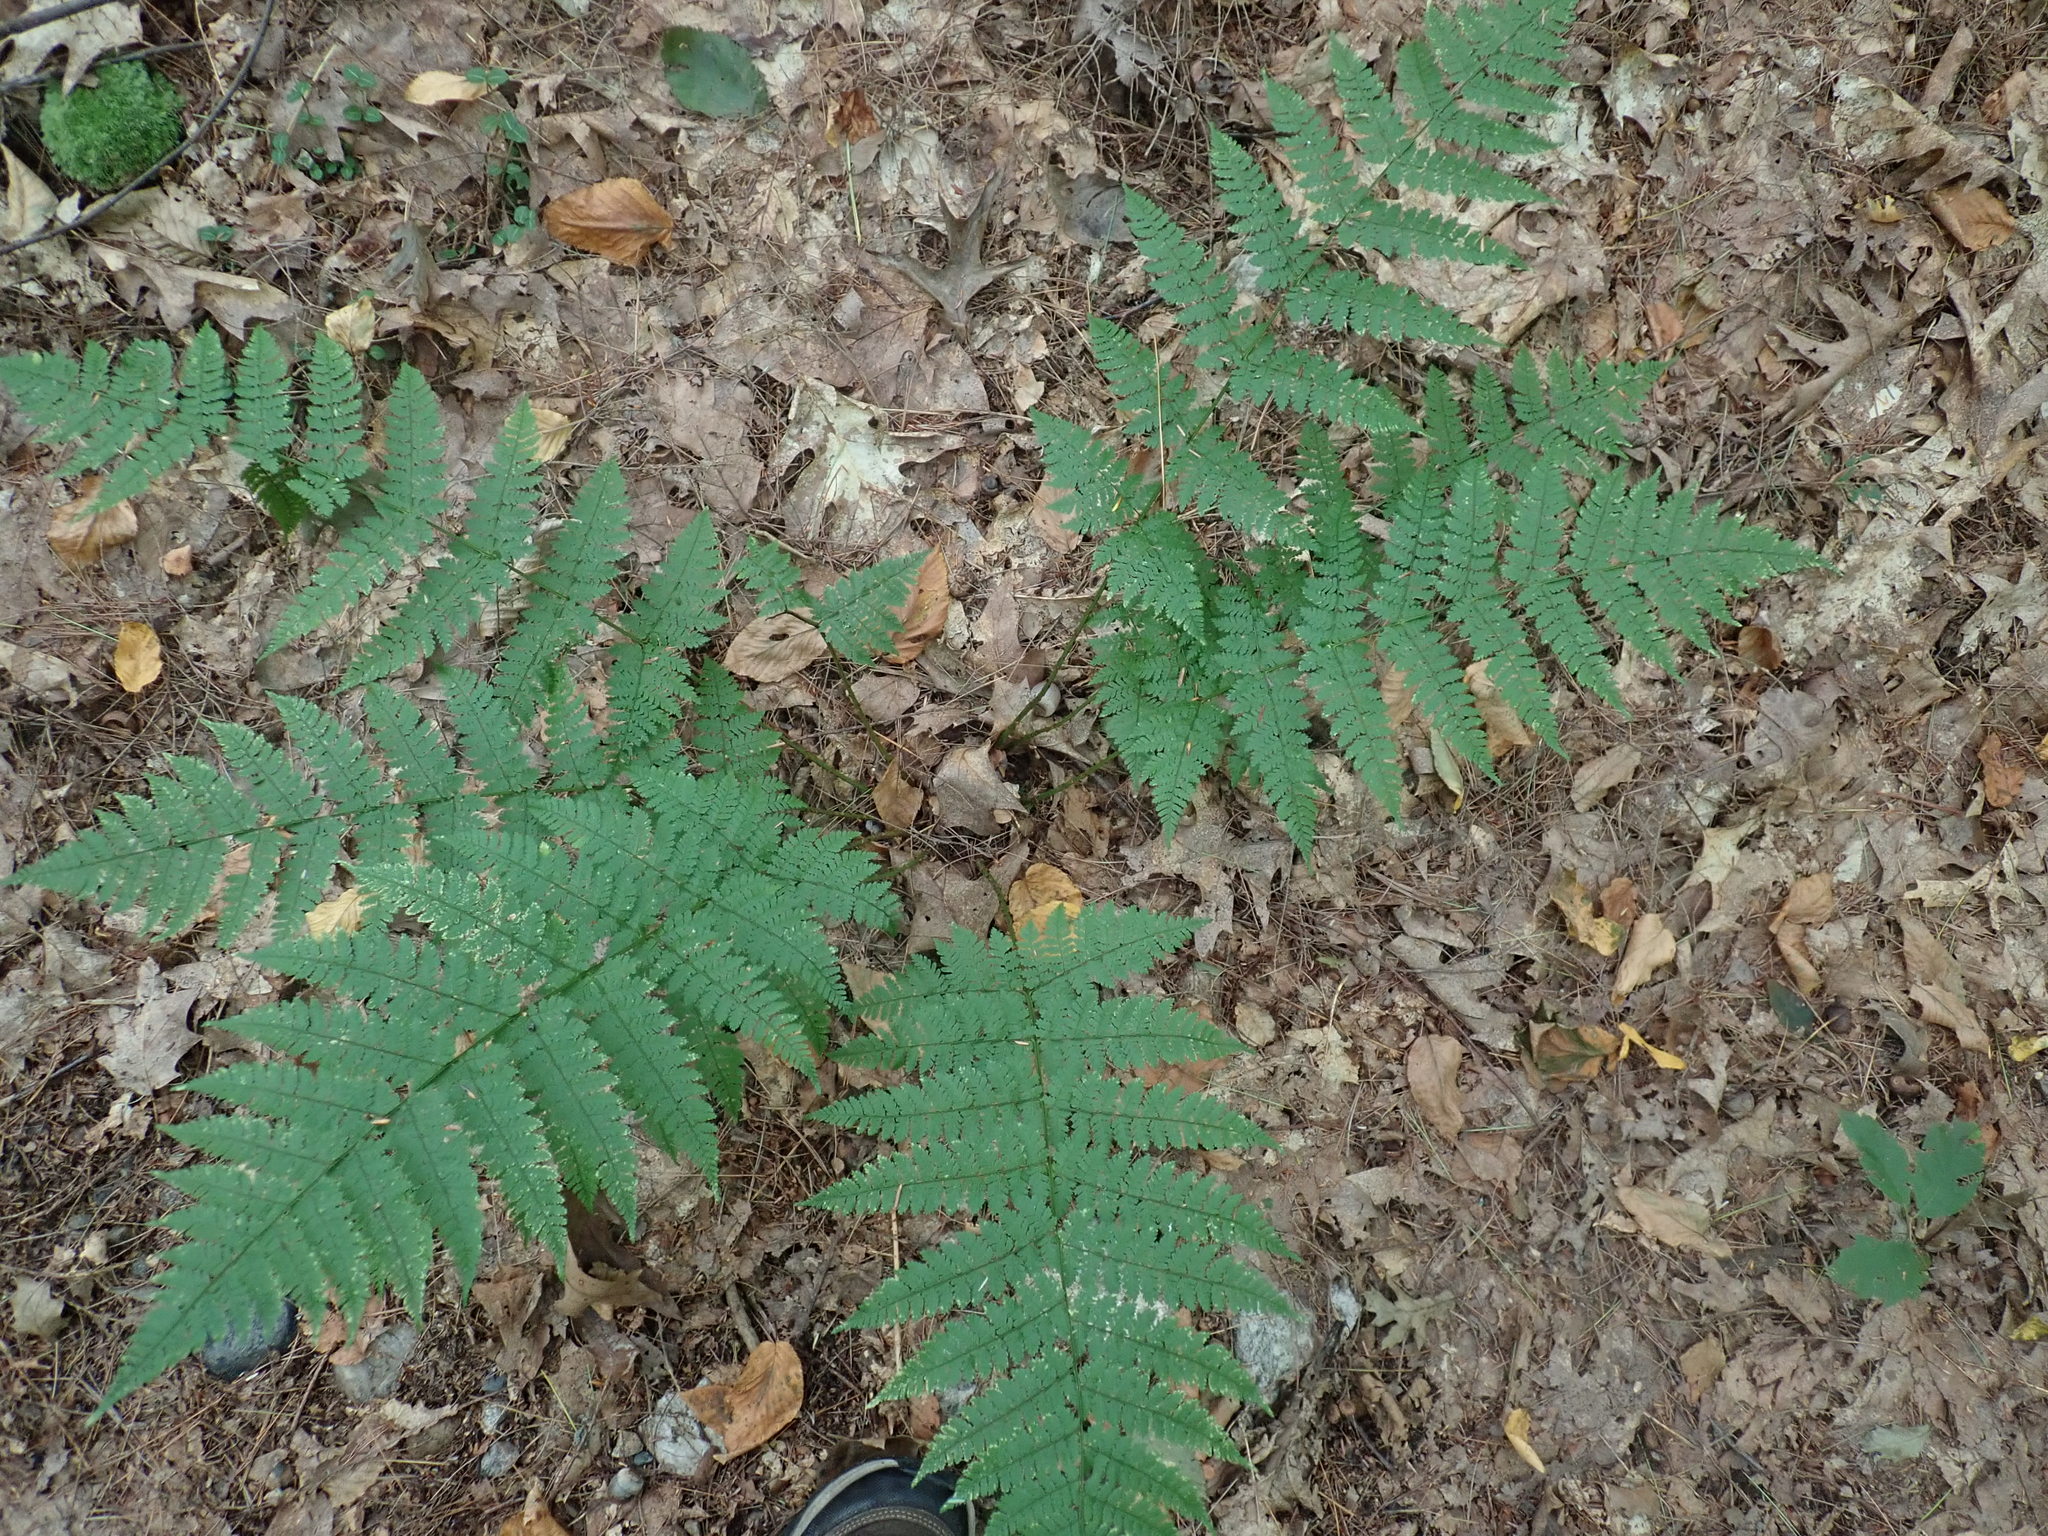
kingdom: Plantae
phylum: Tracheophyta
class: Polypodiopsida
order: Polypodiales
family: Dryopteridaceae
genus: Dryopteris
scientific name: Dryopteris intermedia
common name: Evergreen wood fern
